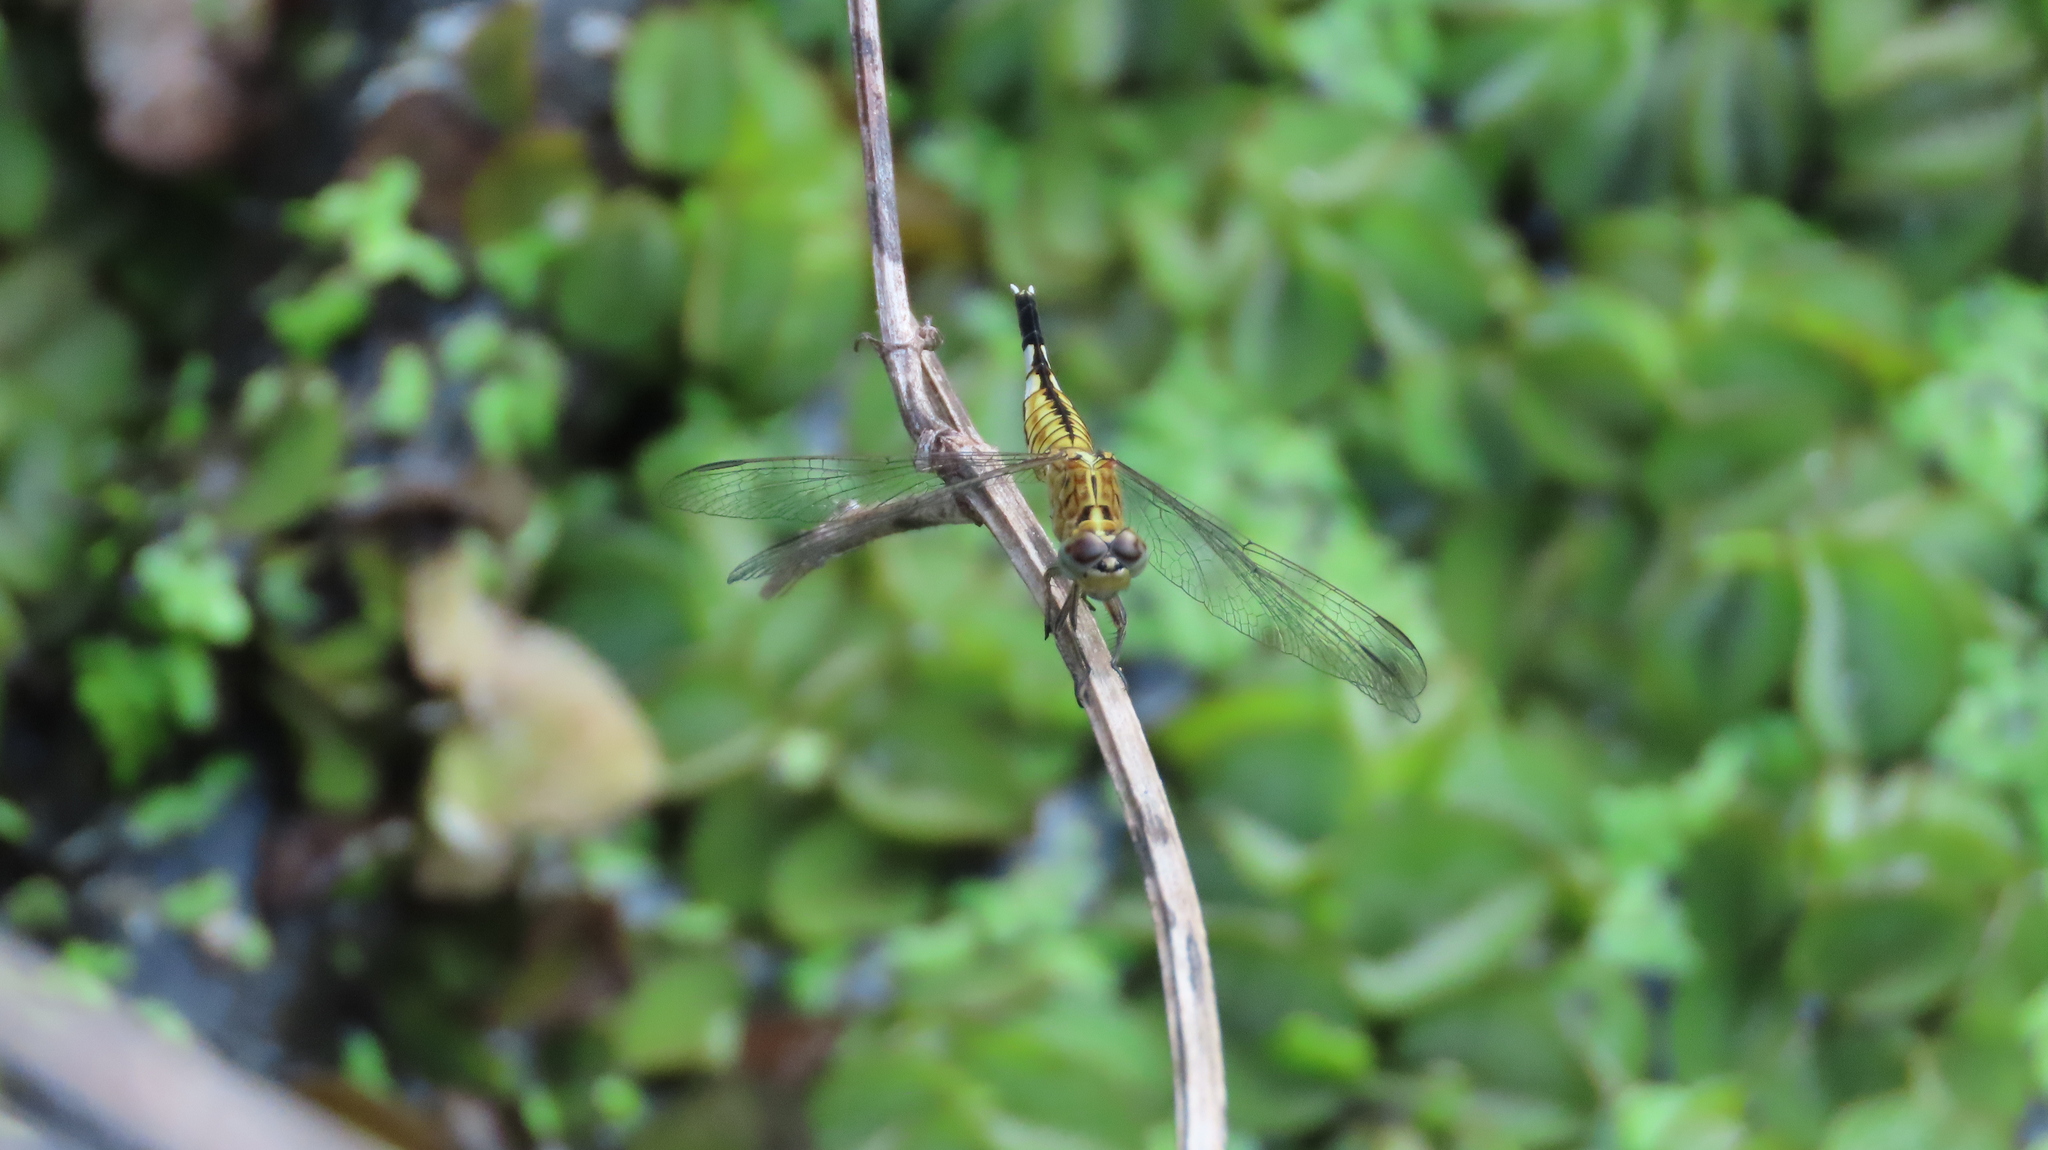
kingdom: Animalia
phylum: Arthropoda
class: Insecta
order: Odonata
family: Libellulidae
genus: Acisoma
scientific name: Acisoma panorpoides
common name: Asian pintail
